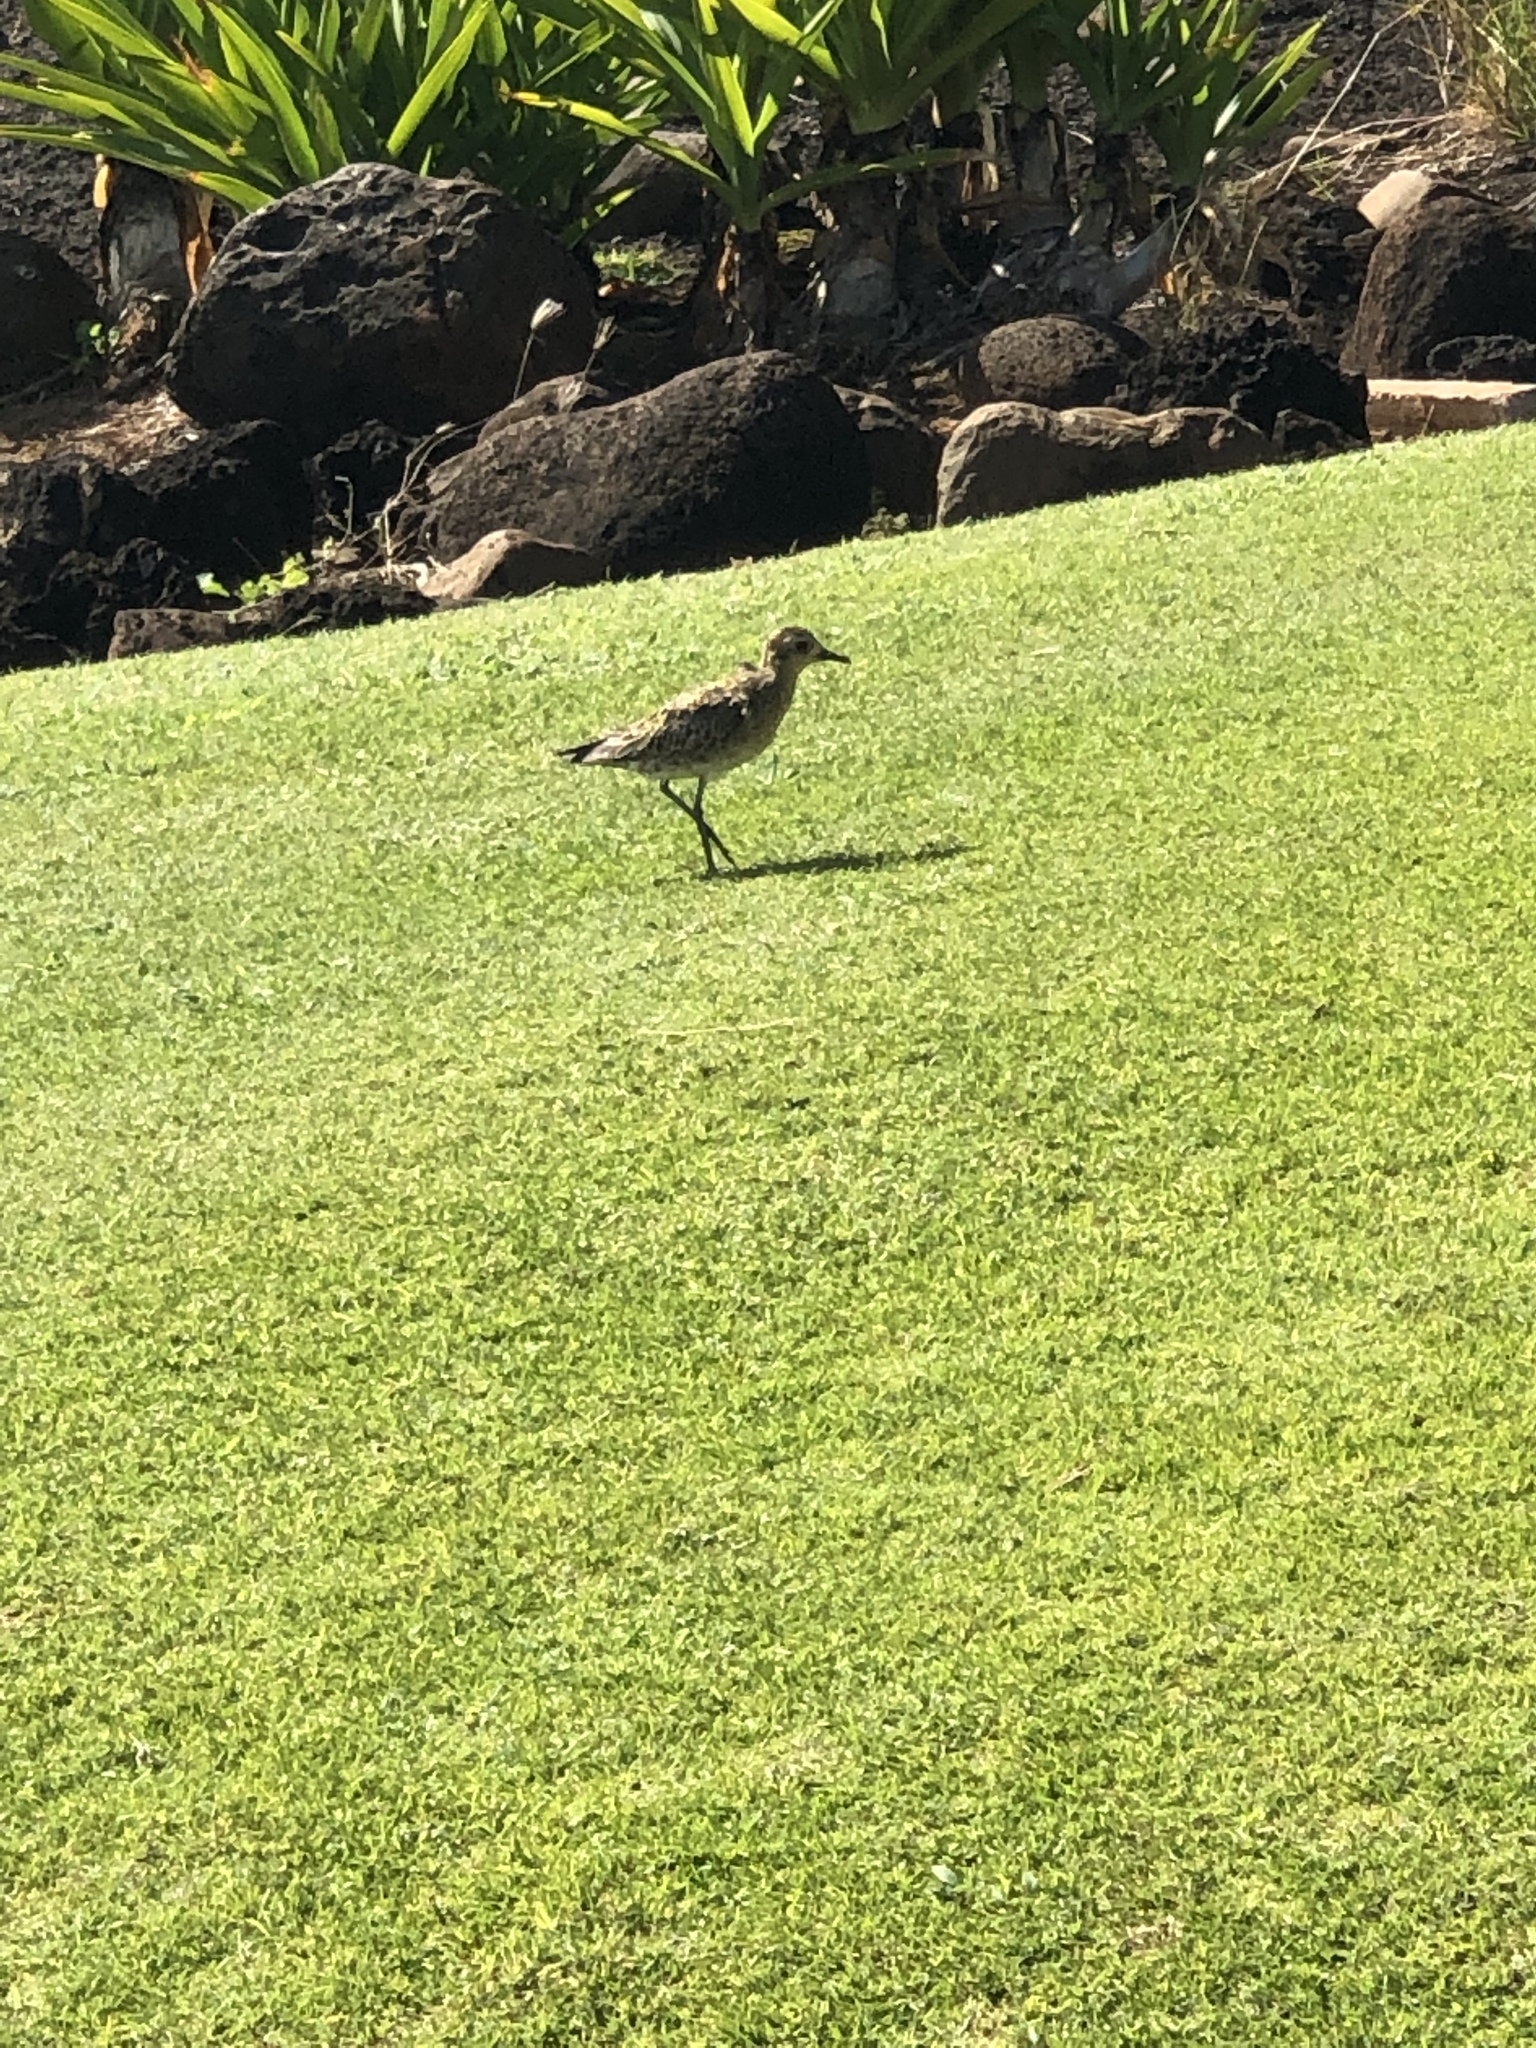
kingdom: Animalia
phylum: Chordata
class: Aves
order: Charadriiformes
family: Charadriidae
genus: Pluvialis
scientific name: Pluvialis fulva
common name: Pacific golden plover
